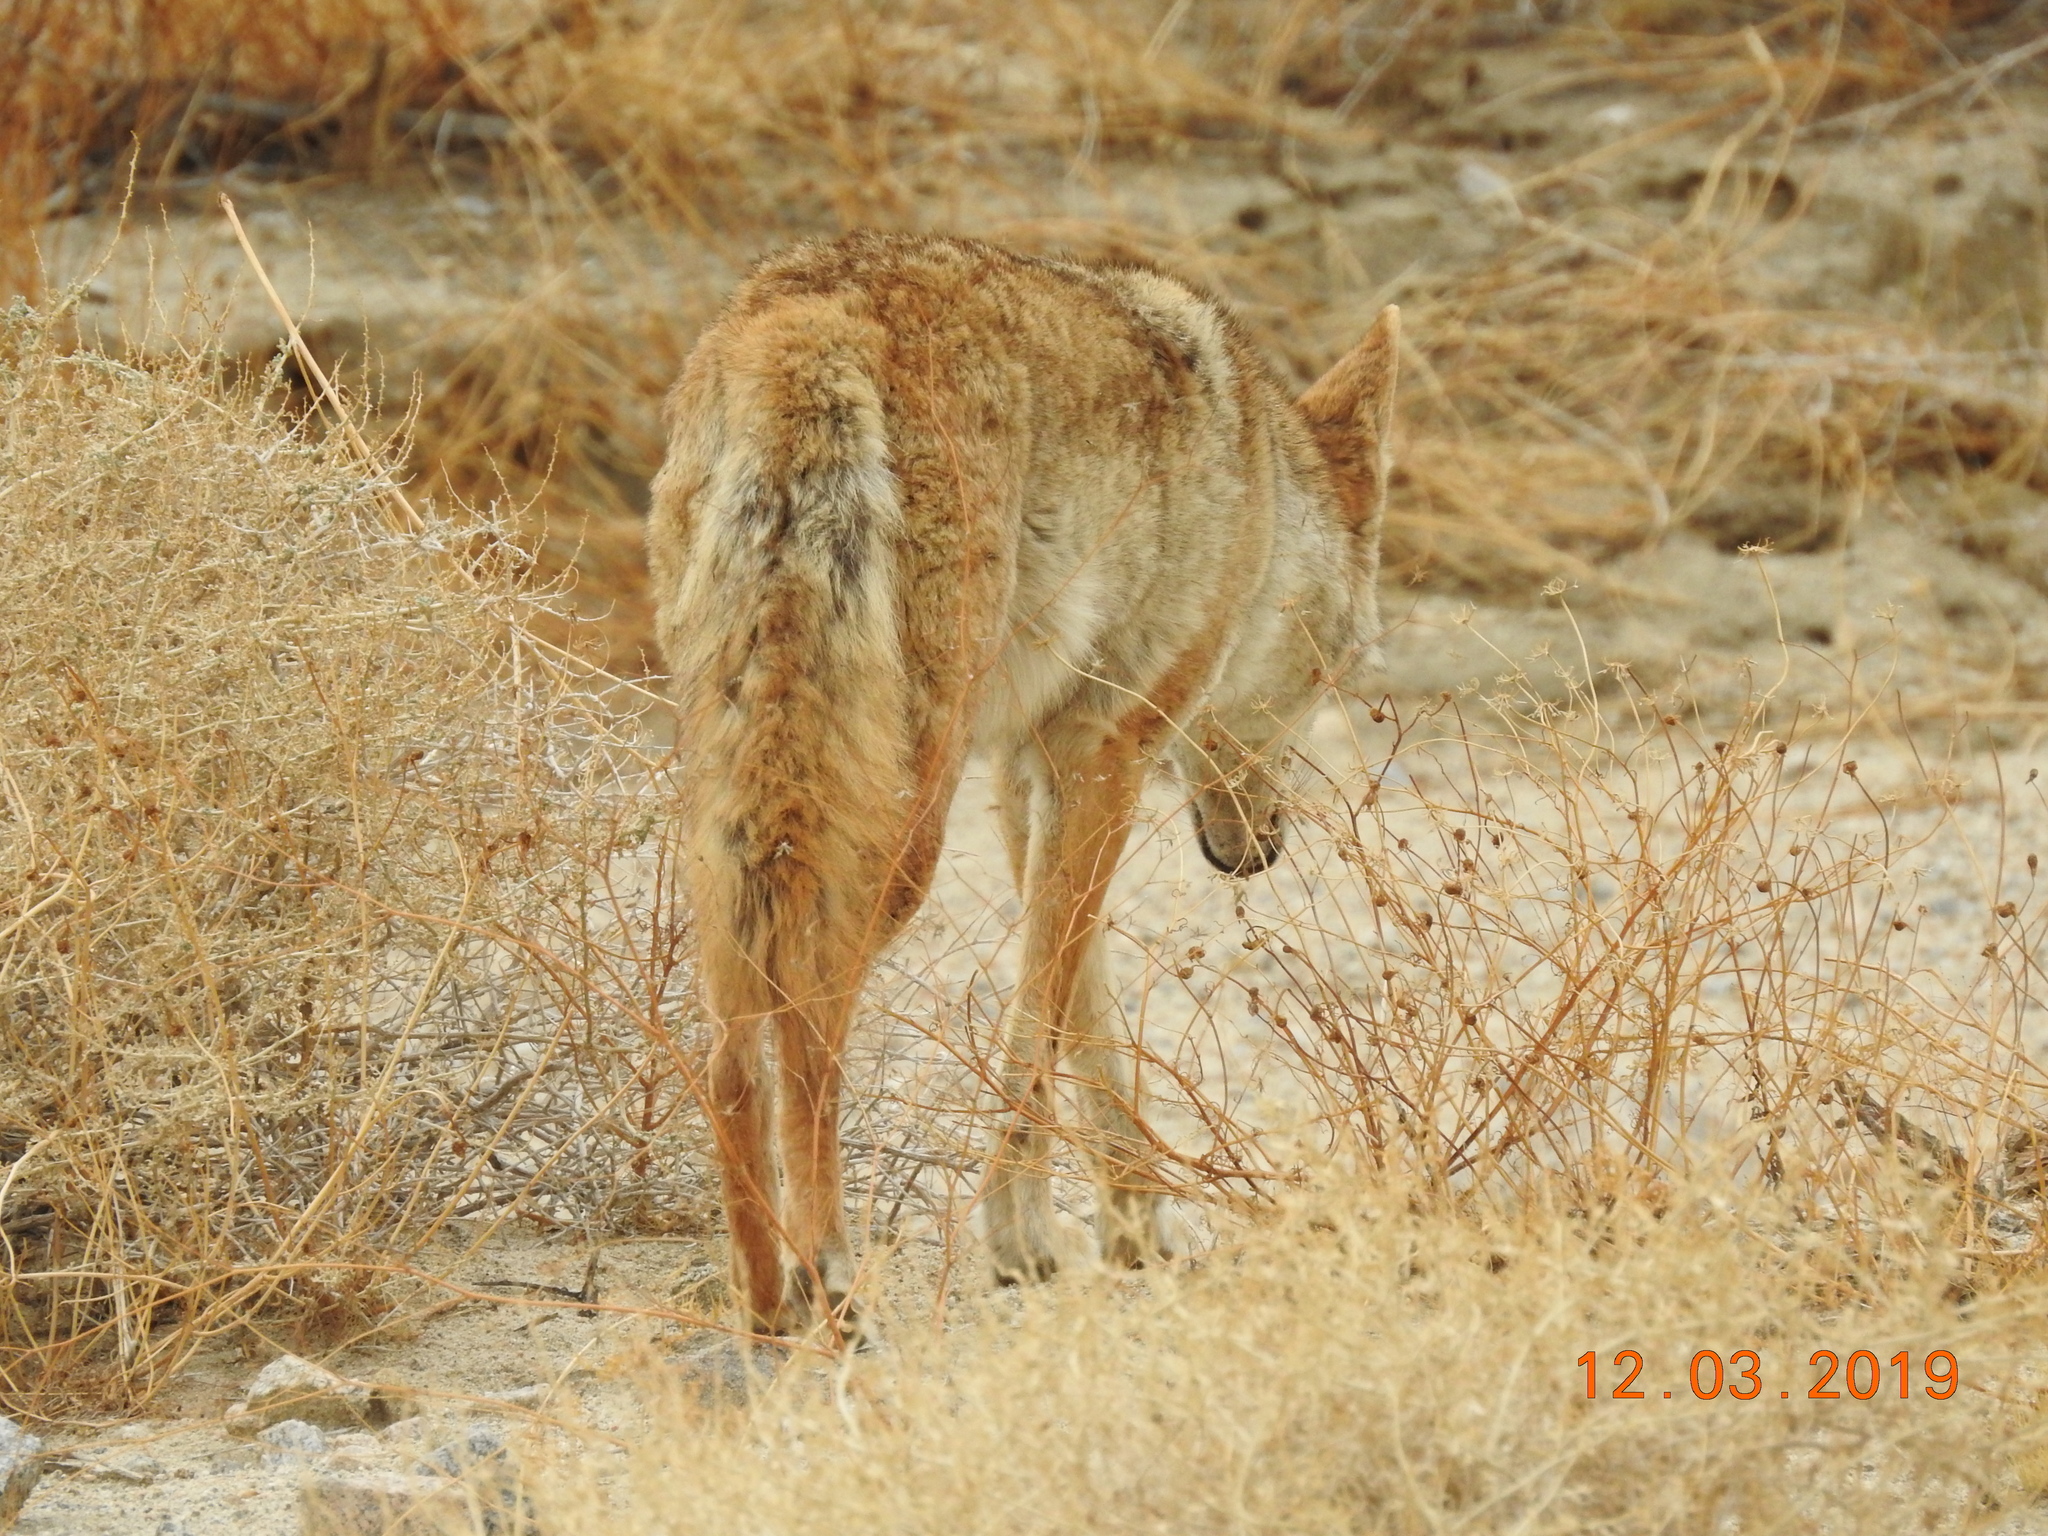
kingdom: Animalia
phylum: Chordata
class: Mammalia
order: Carnivora
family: Canidae
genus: Canis
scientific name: Canis latrans
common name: Coyote
